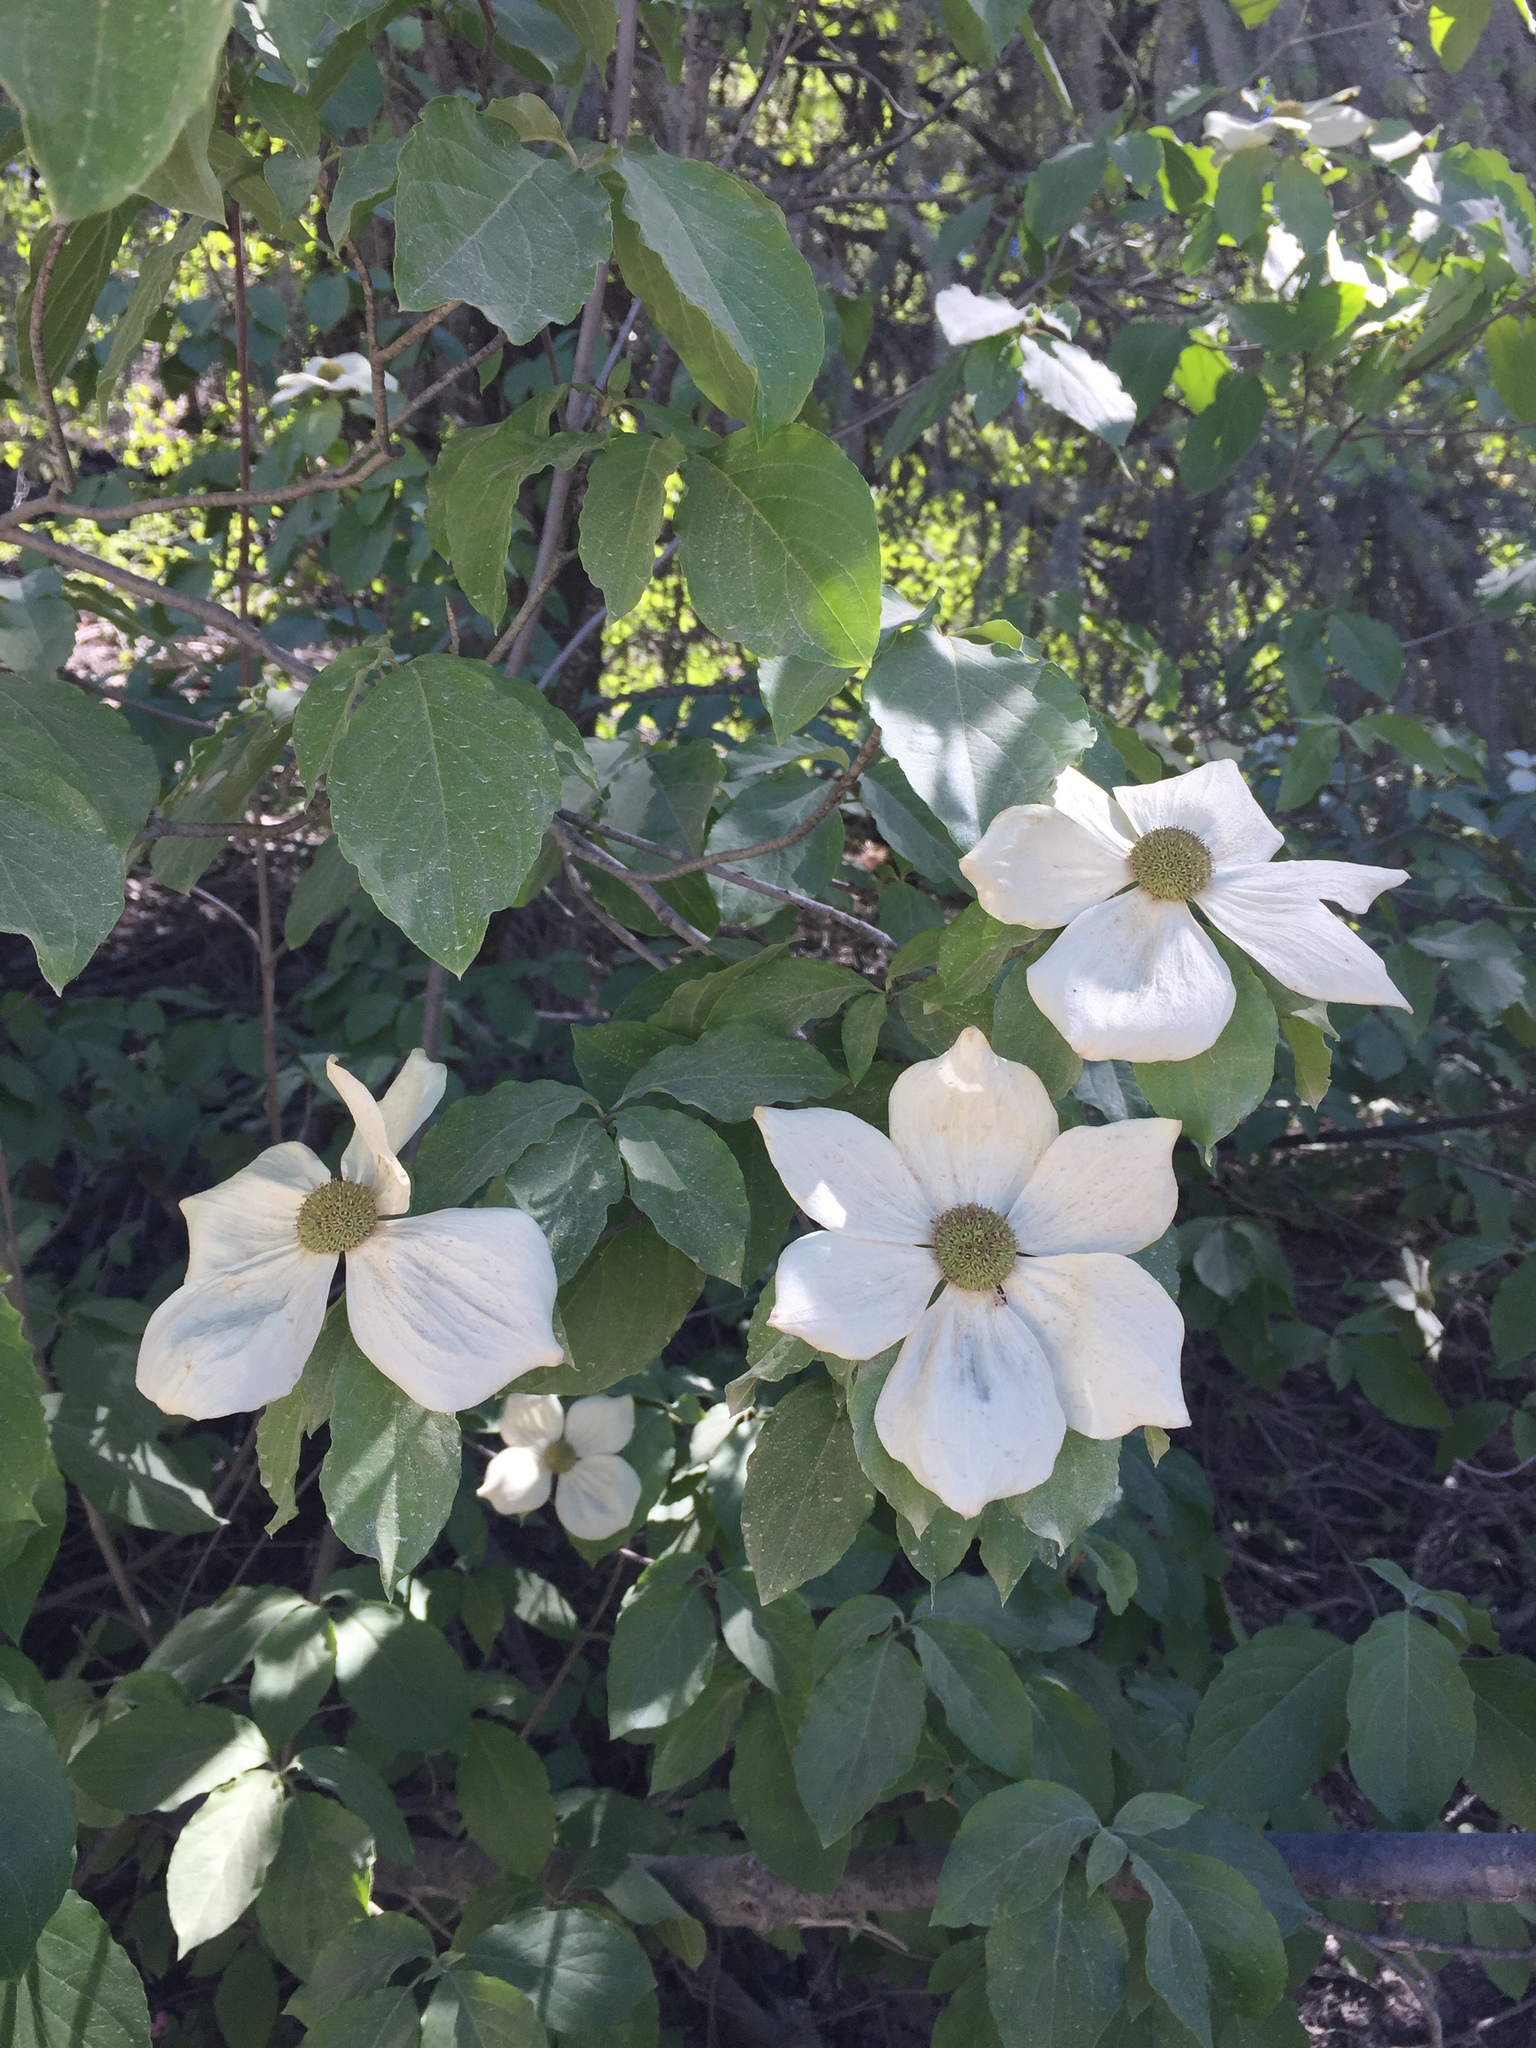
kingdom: Plantae
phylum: Tracheophyta
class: Magnoliopsida
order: Cornales
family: Cornaceae
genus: Cornus
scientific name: Cornus nuttallii
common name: Pacific dogwood
